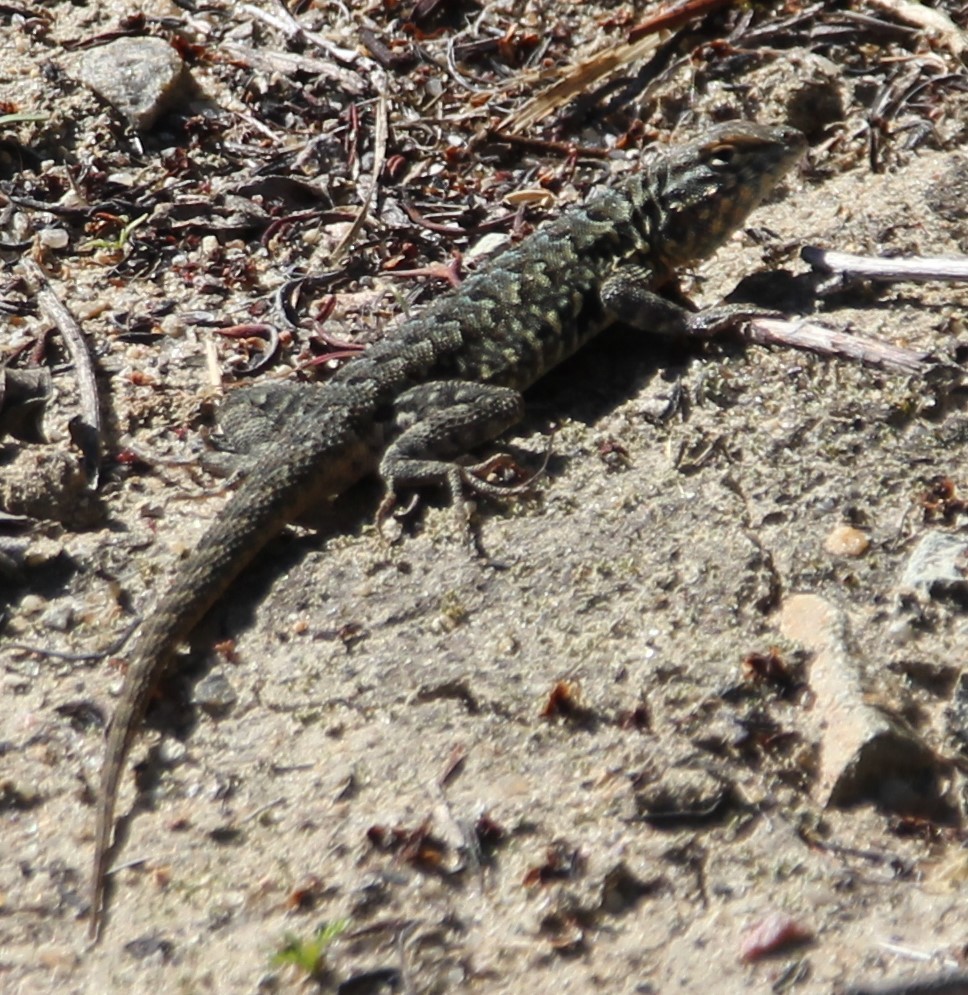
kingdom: Animalia
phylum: Chordata
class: Squamata
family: Phrynosomatidae
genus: Uta
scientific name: Uta stansburiana
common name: Side-blotched lizard
